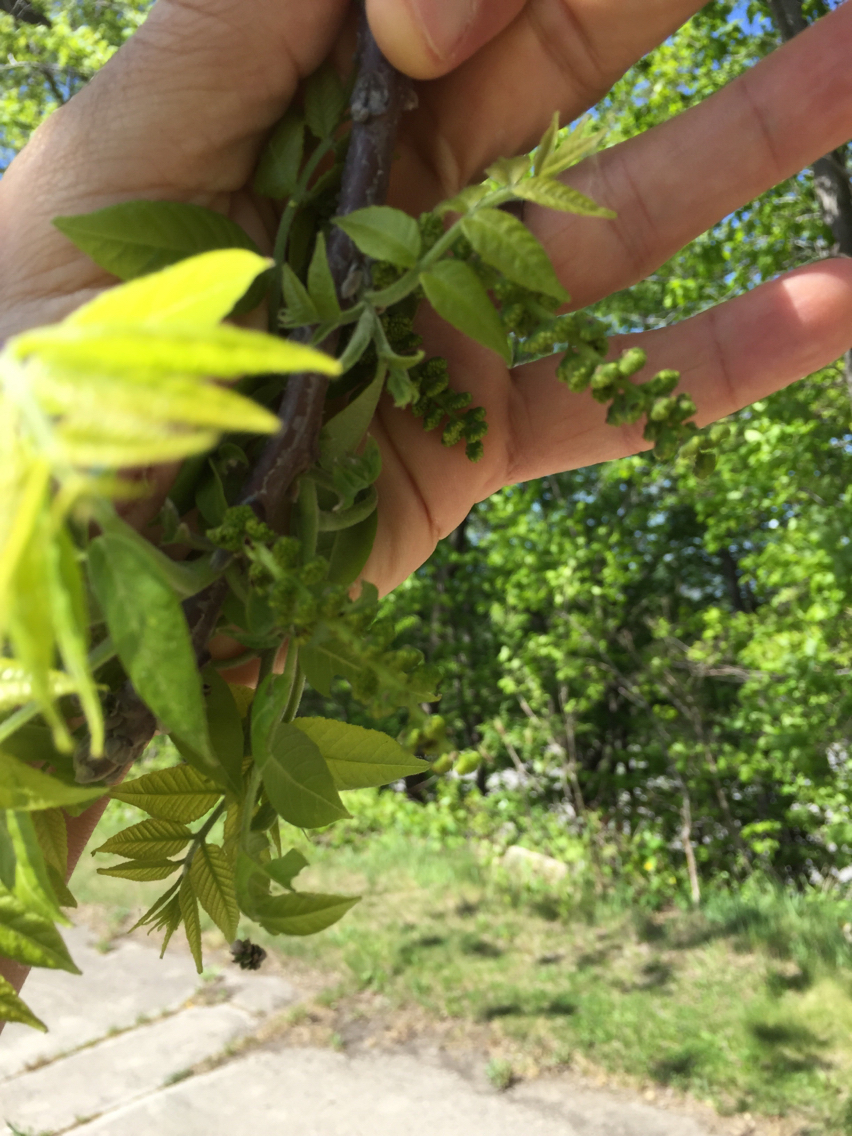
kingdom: Plantae
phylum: Tracheophyta
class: Magnoliopsida
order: Fagales
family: Juglandaceae
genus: Juglans
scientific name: Juglans cinerea
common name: Butternut
